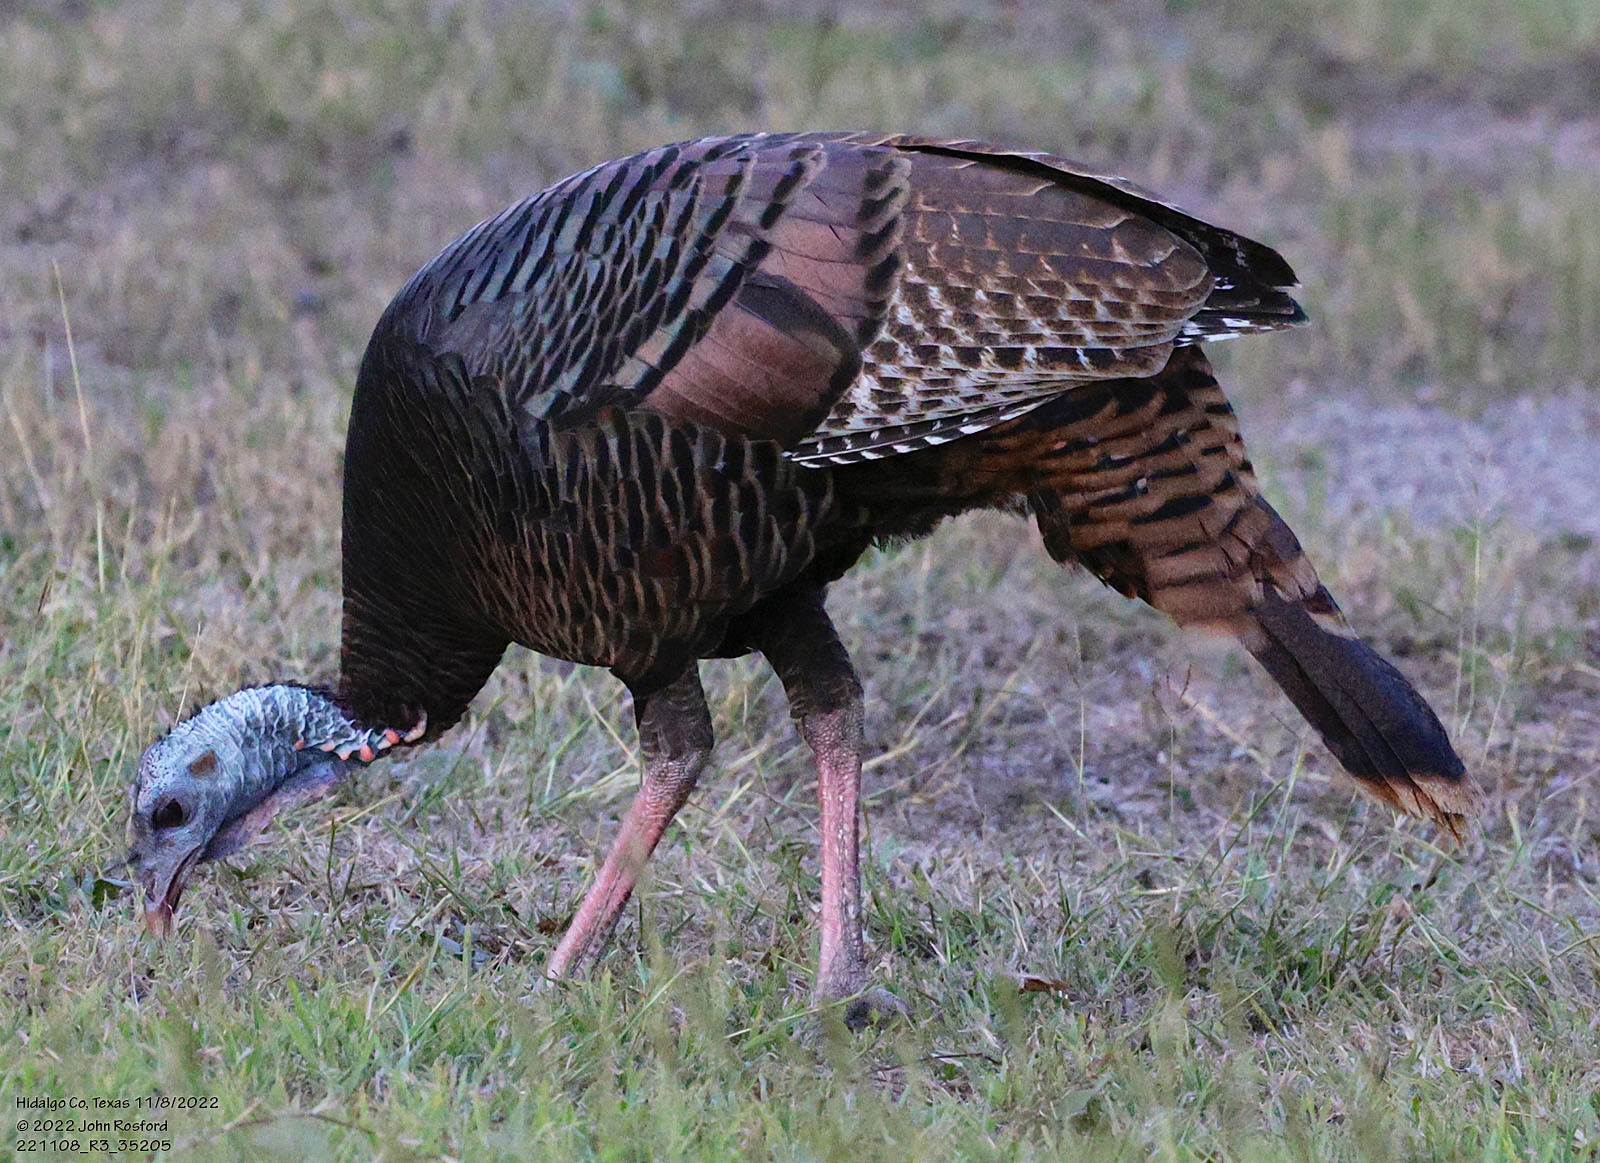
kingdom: Animalia
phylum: Chordata
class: Aves
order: Galliformes
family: Phasianidae
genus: Meleagris
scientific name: Meleagris gallopavo
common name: Wild turkey
